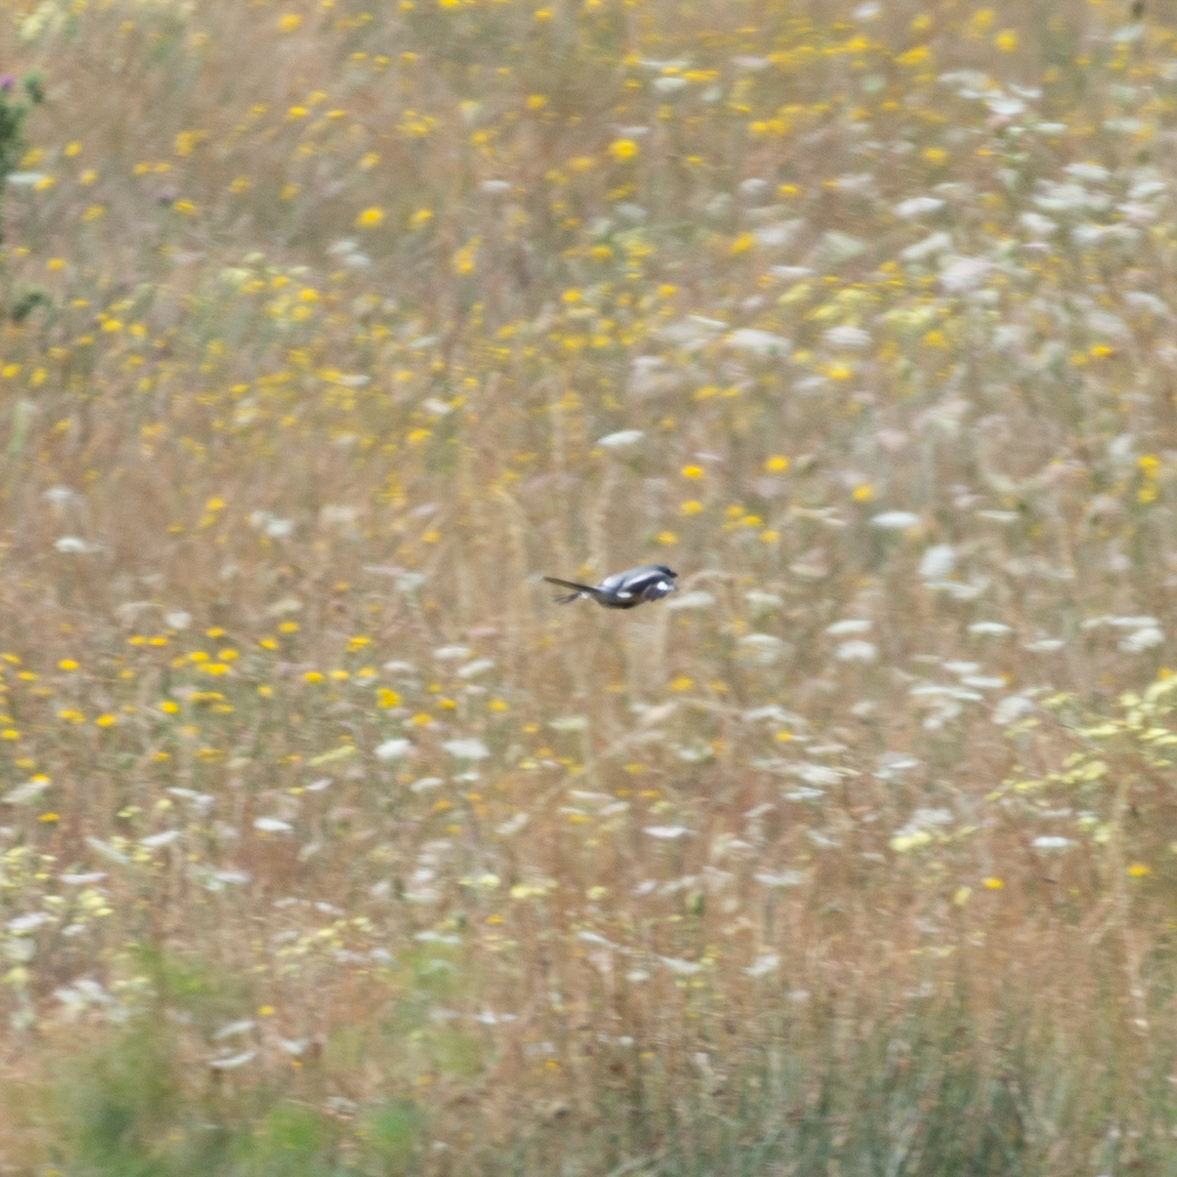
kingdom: Animalia
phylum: Chordata
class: Aves
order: Passeriformes
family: Laniidae
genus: Lanius
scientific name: Lanius meridionalis
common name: Iberian grey shrike
